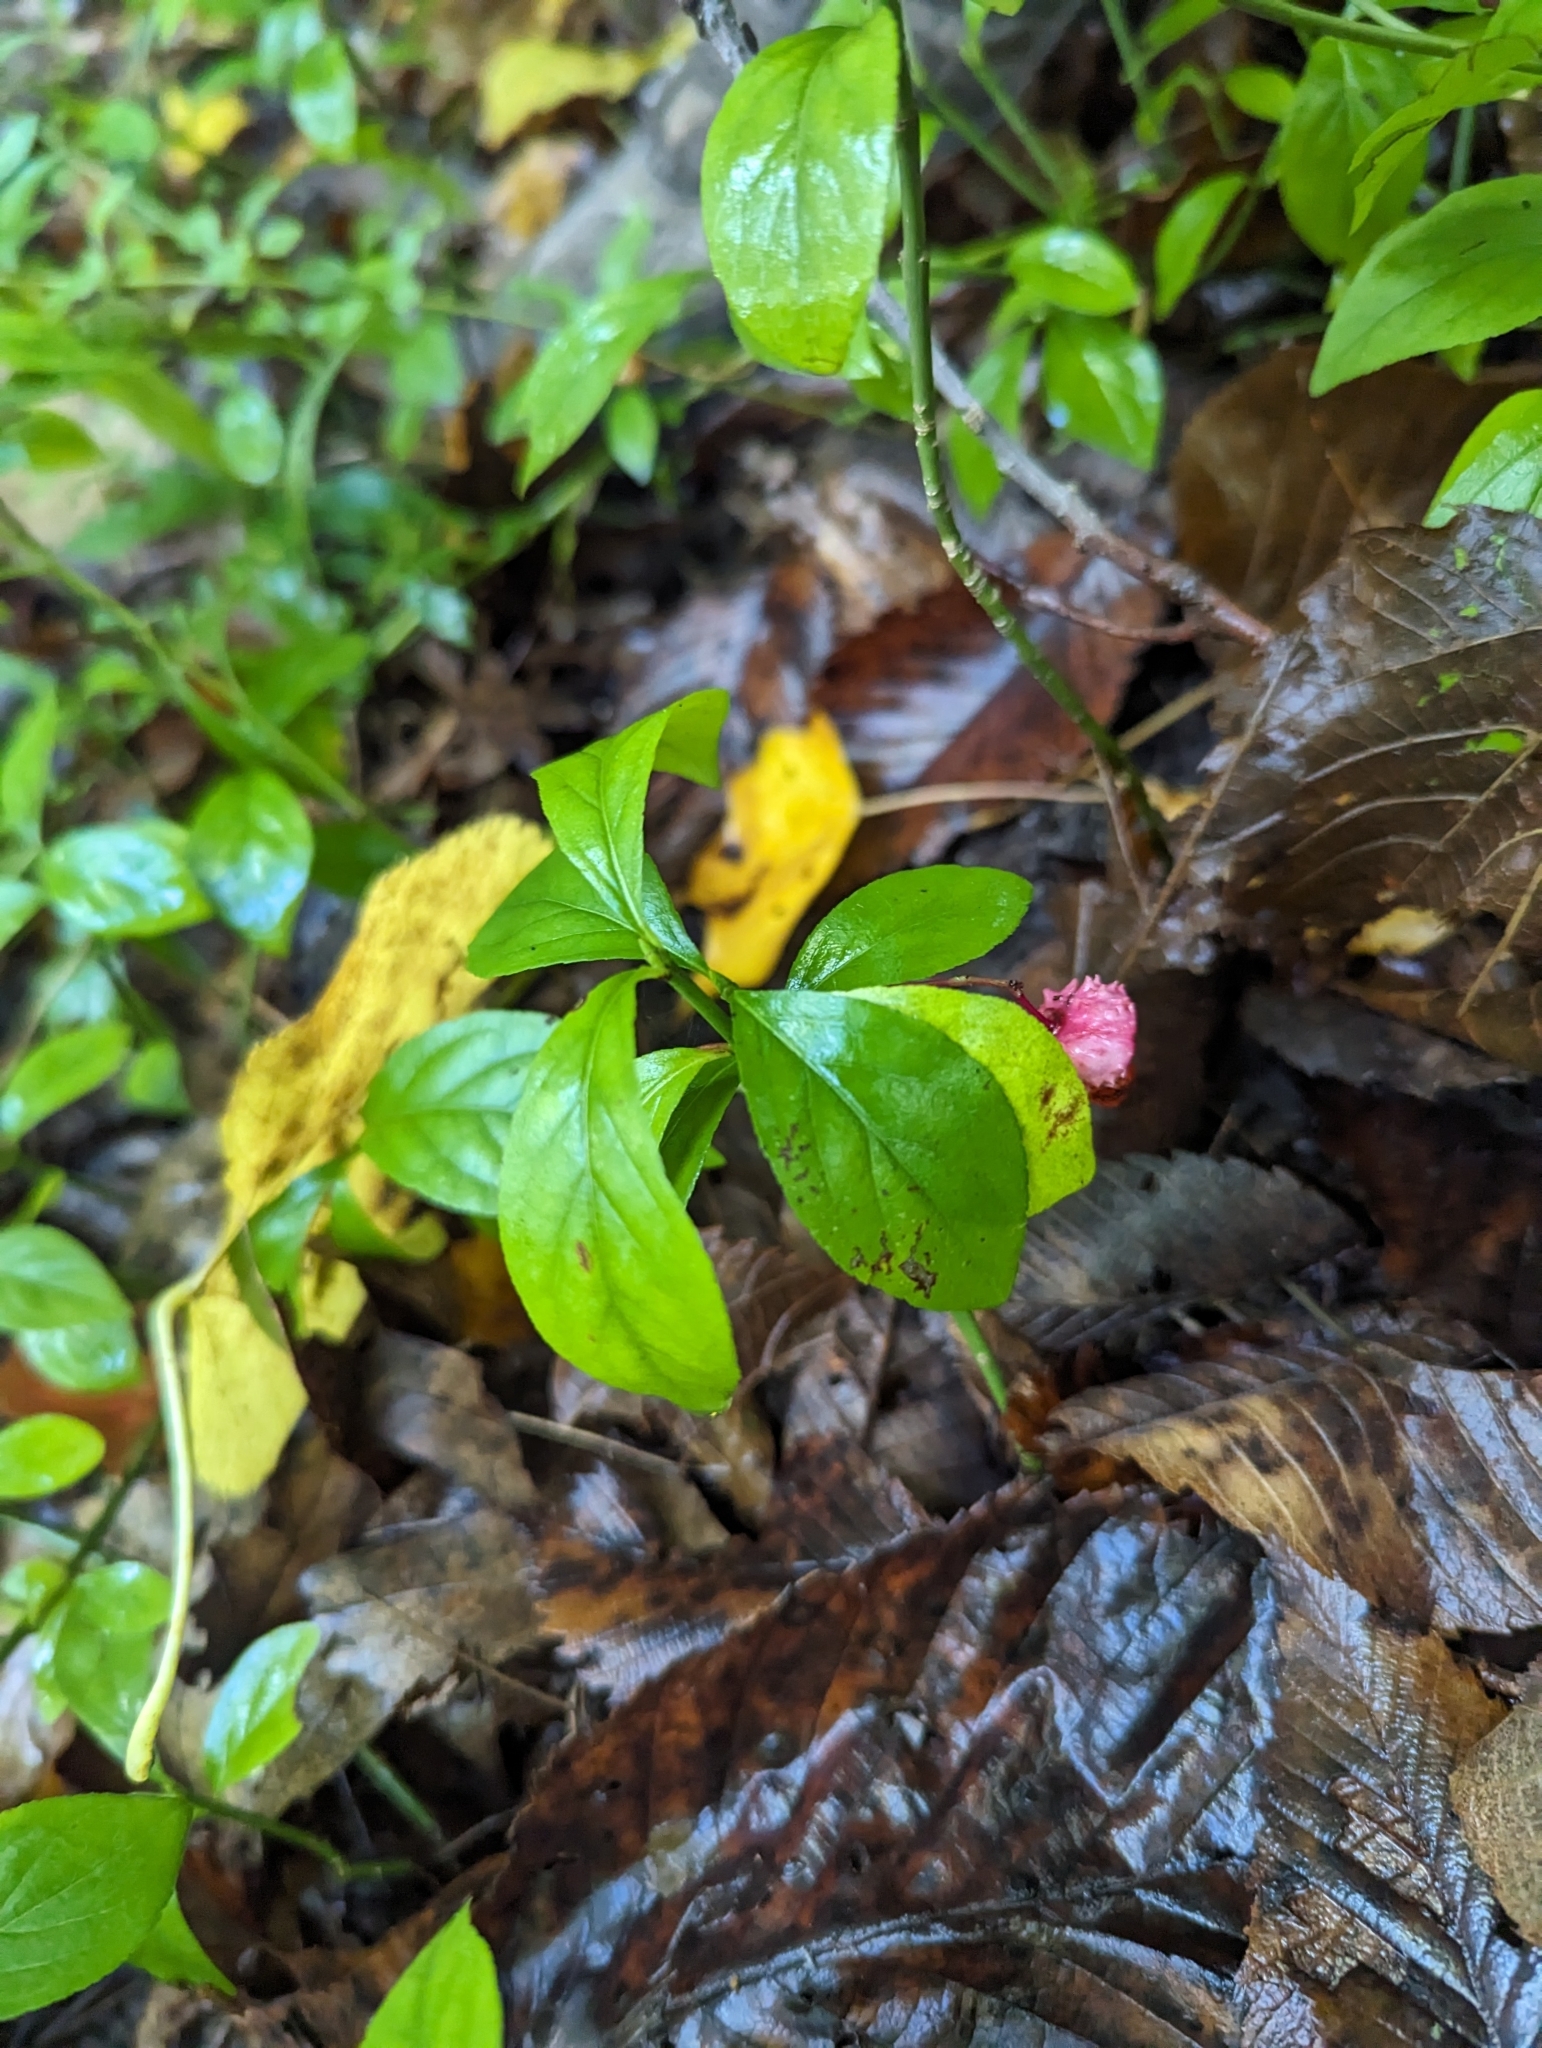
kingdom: Plantae
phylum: Tracheophyta
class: Magnoliopsida
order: Celastrales
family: Celastraceae
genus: Euonymus
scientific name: Euonymus obovatus
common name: Running strawberry-bush
